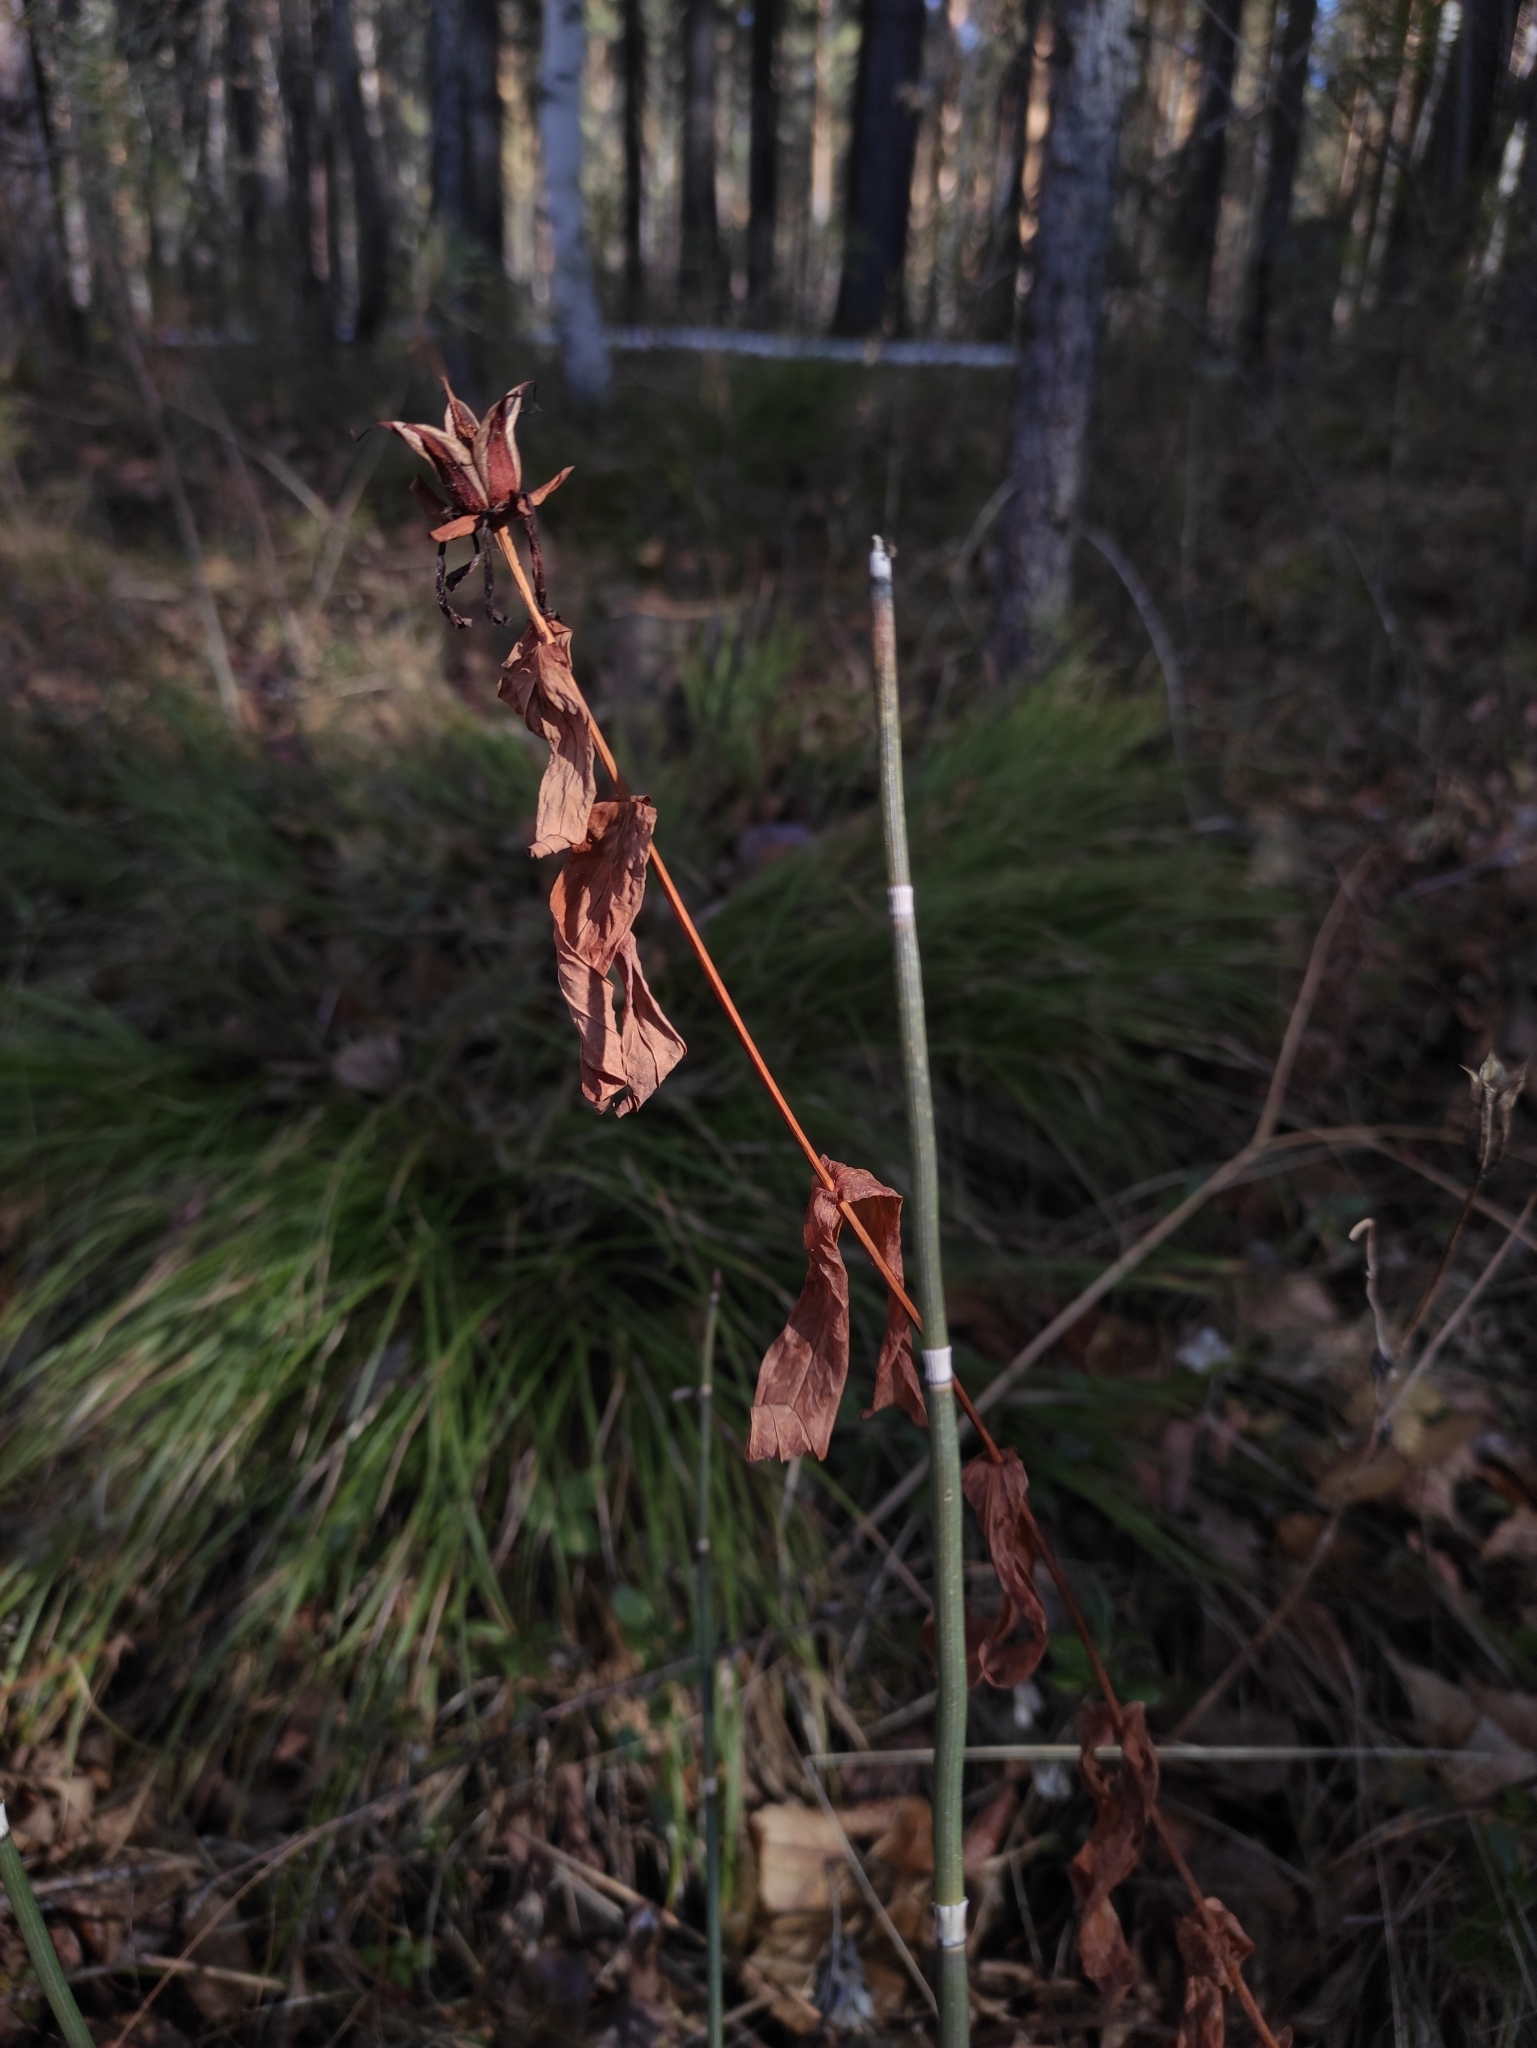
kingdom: Plantae
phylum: Tracheophyta
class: Magnoliopsida
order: Malpighiales
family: Hypericaceae
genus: Hypericum
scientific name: Hypericum ascyron
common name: Giant st. john's-wort
